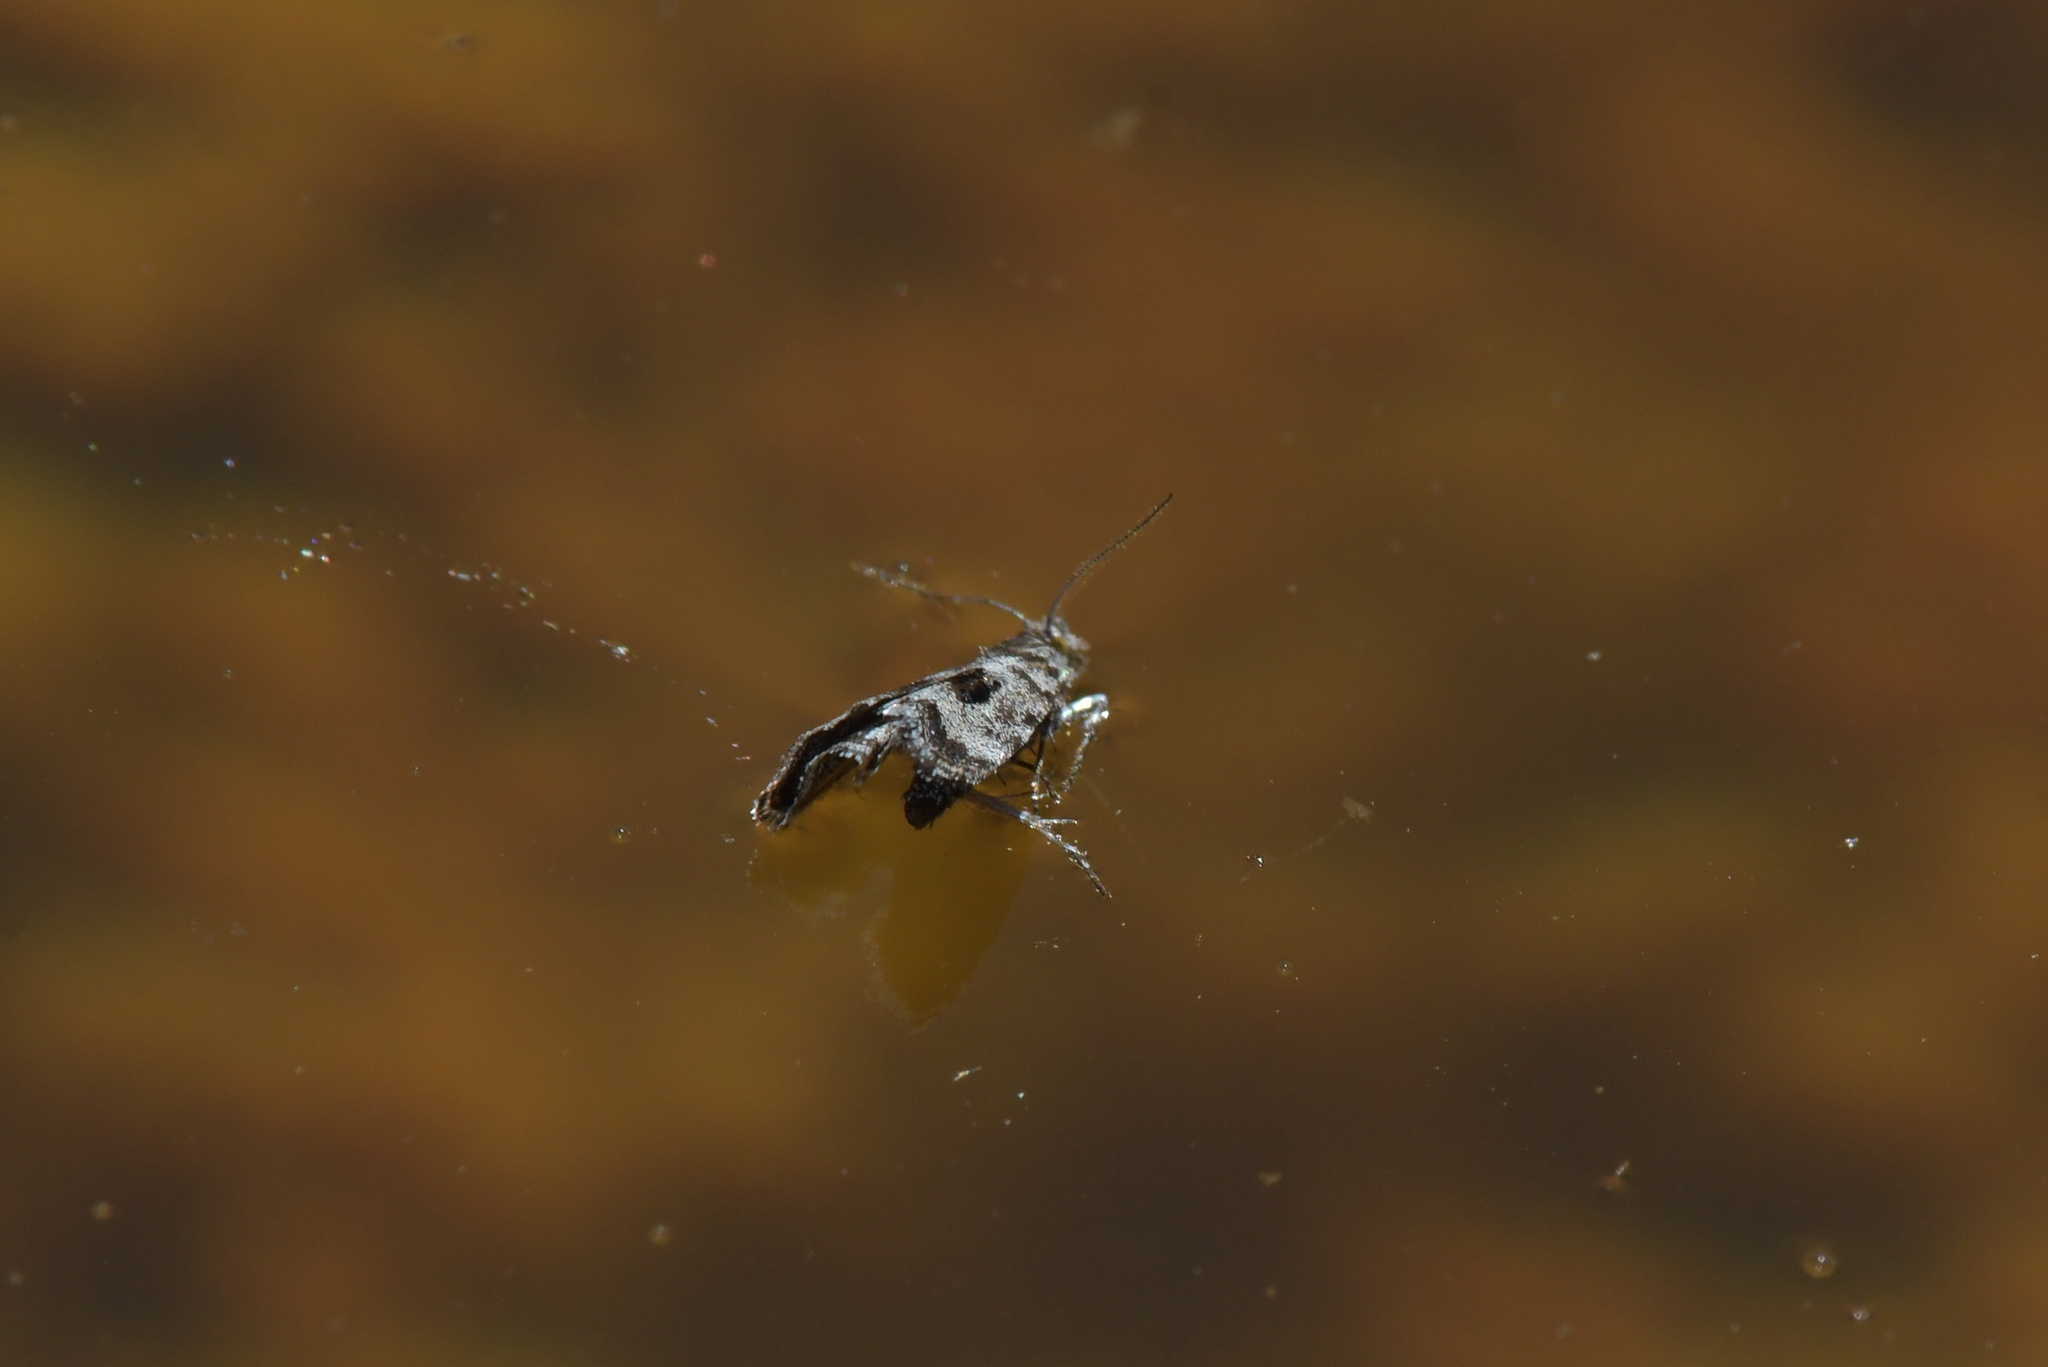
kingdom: Animalia
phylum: Arthropoda
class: Insecta
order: Lepidoptera
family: Choreutidae
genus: Asterivora
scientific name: Asterivora inspoliata
